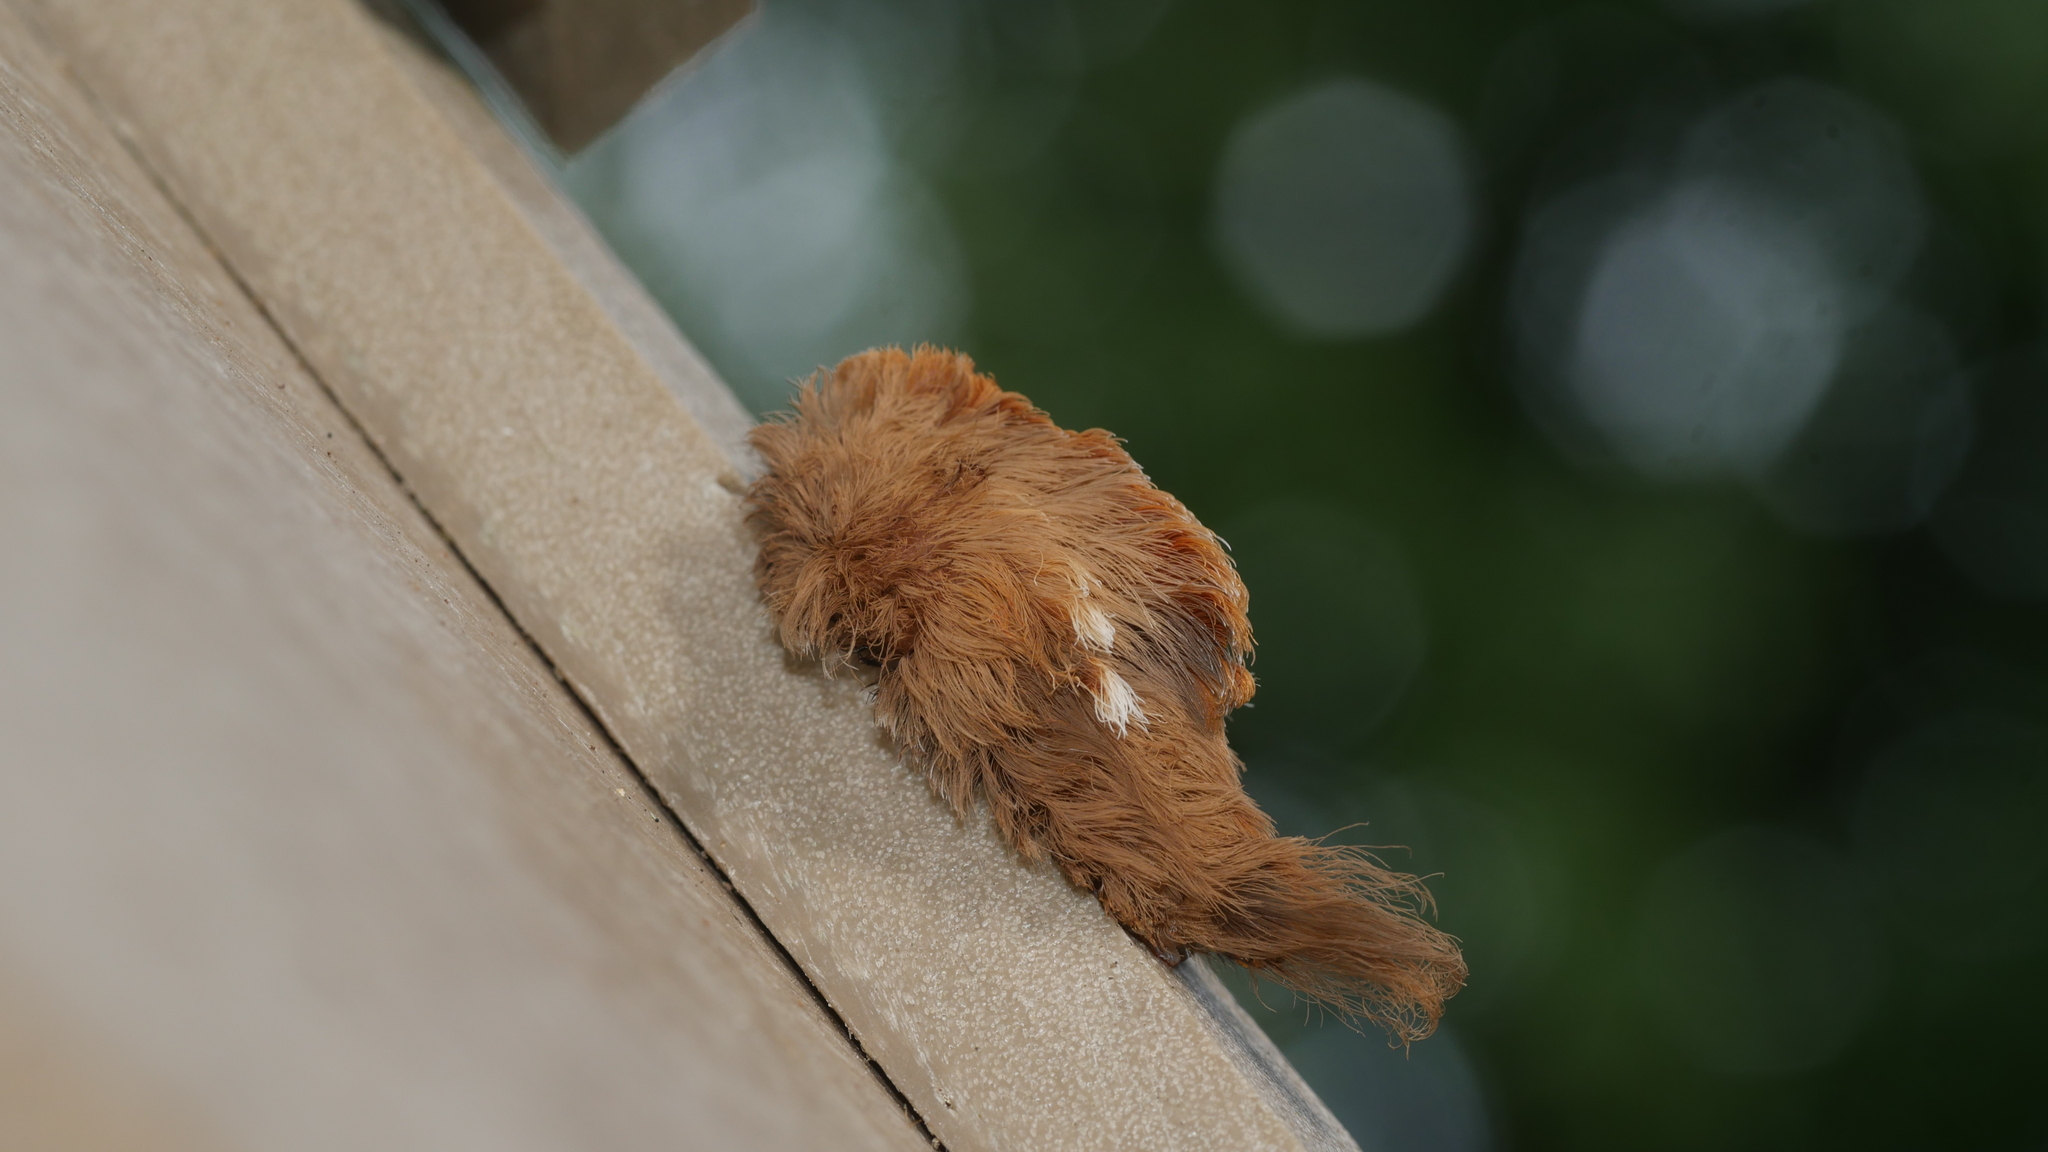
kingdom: Animalia
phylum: Arthropoda
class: Insecta
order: Lepidoptera
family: Megalopygidae
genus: Megalopyge
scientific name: Megalopyge opercularis
